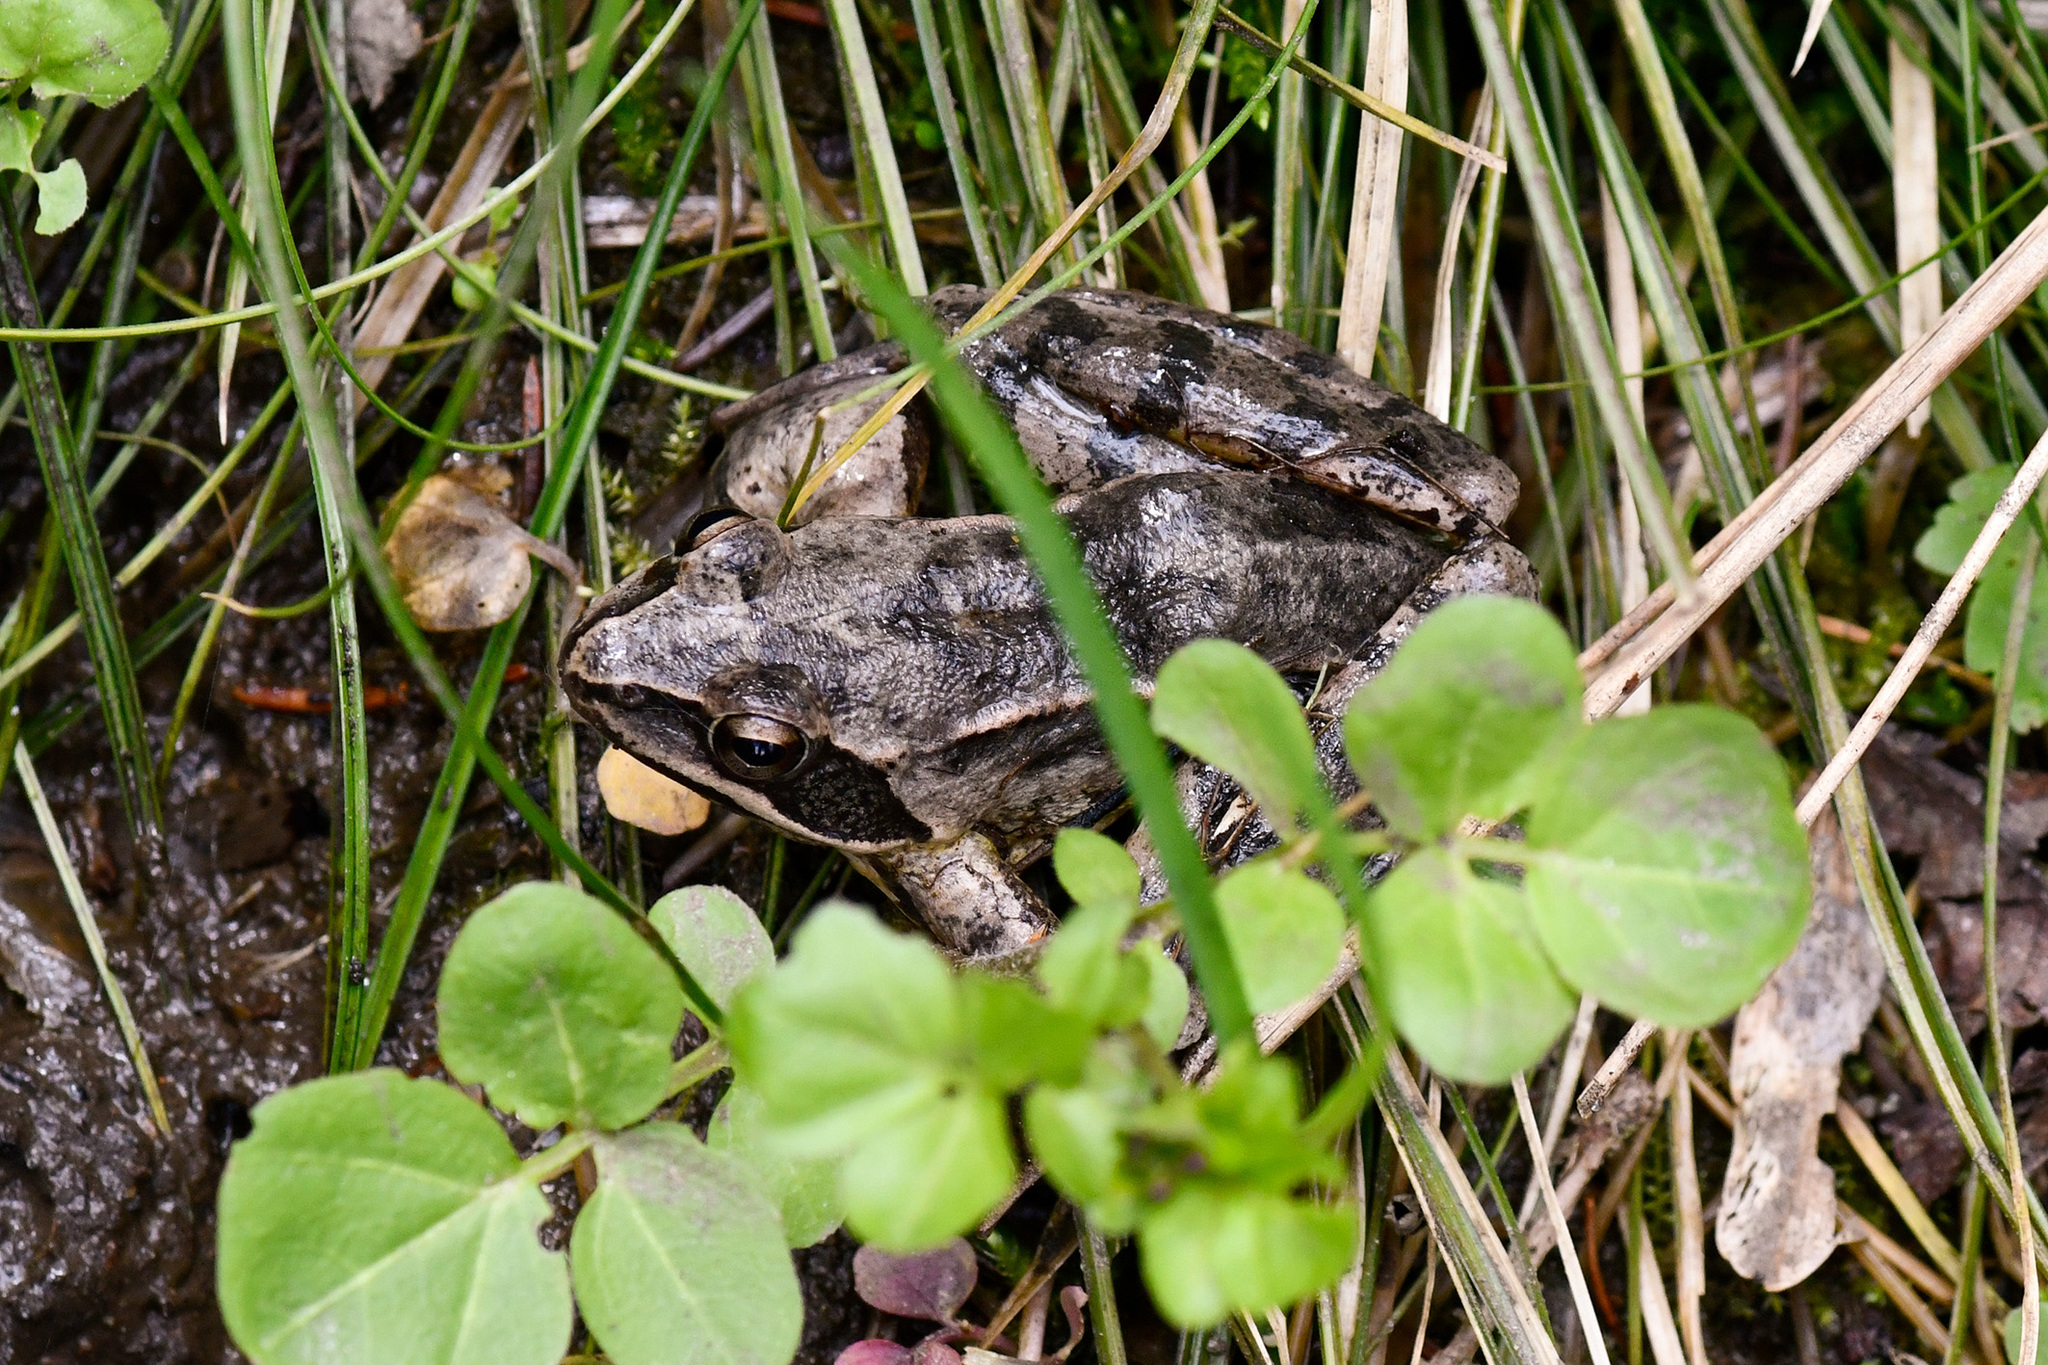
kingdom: Animalia
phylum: Chordata
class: Amphibia
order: Anura
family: Ranidae
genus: Rana
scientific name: Rana dalmatina
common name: Agile frog
